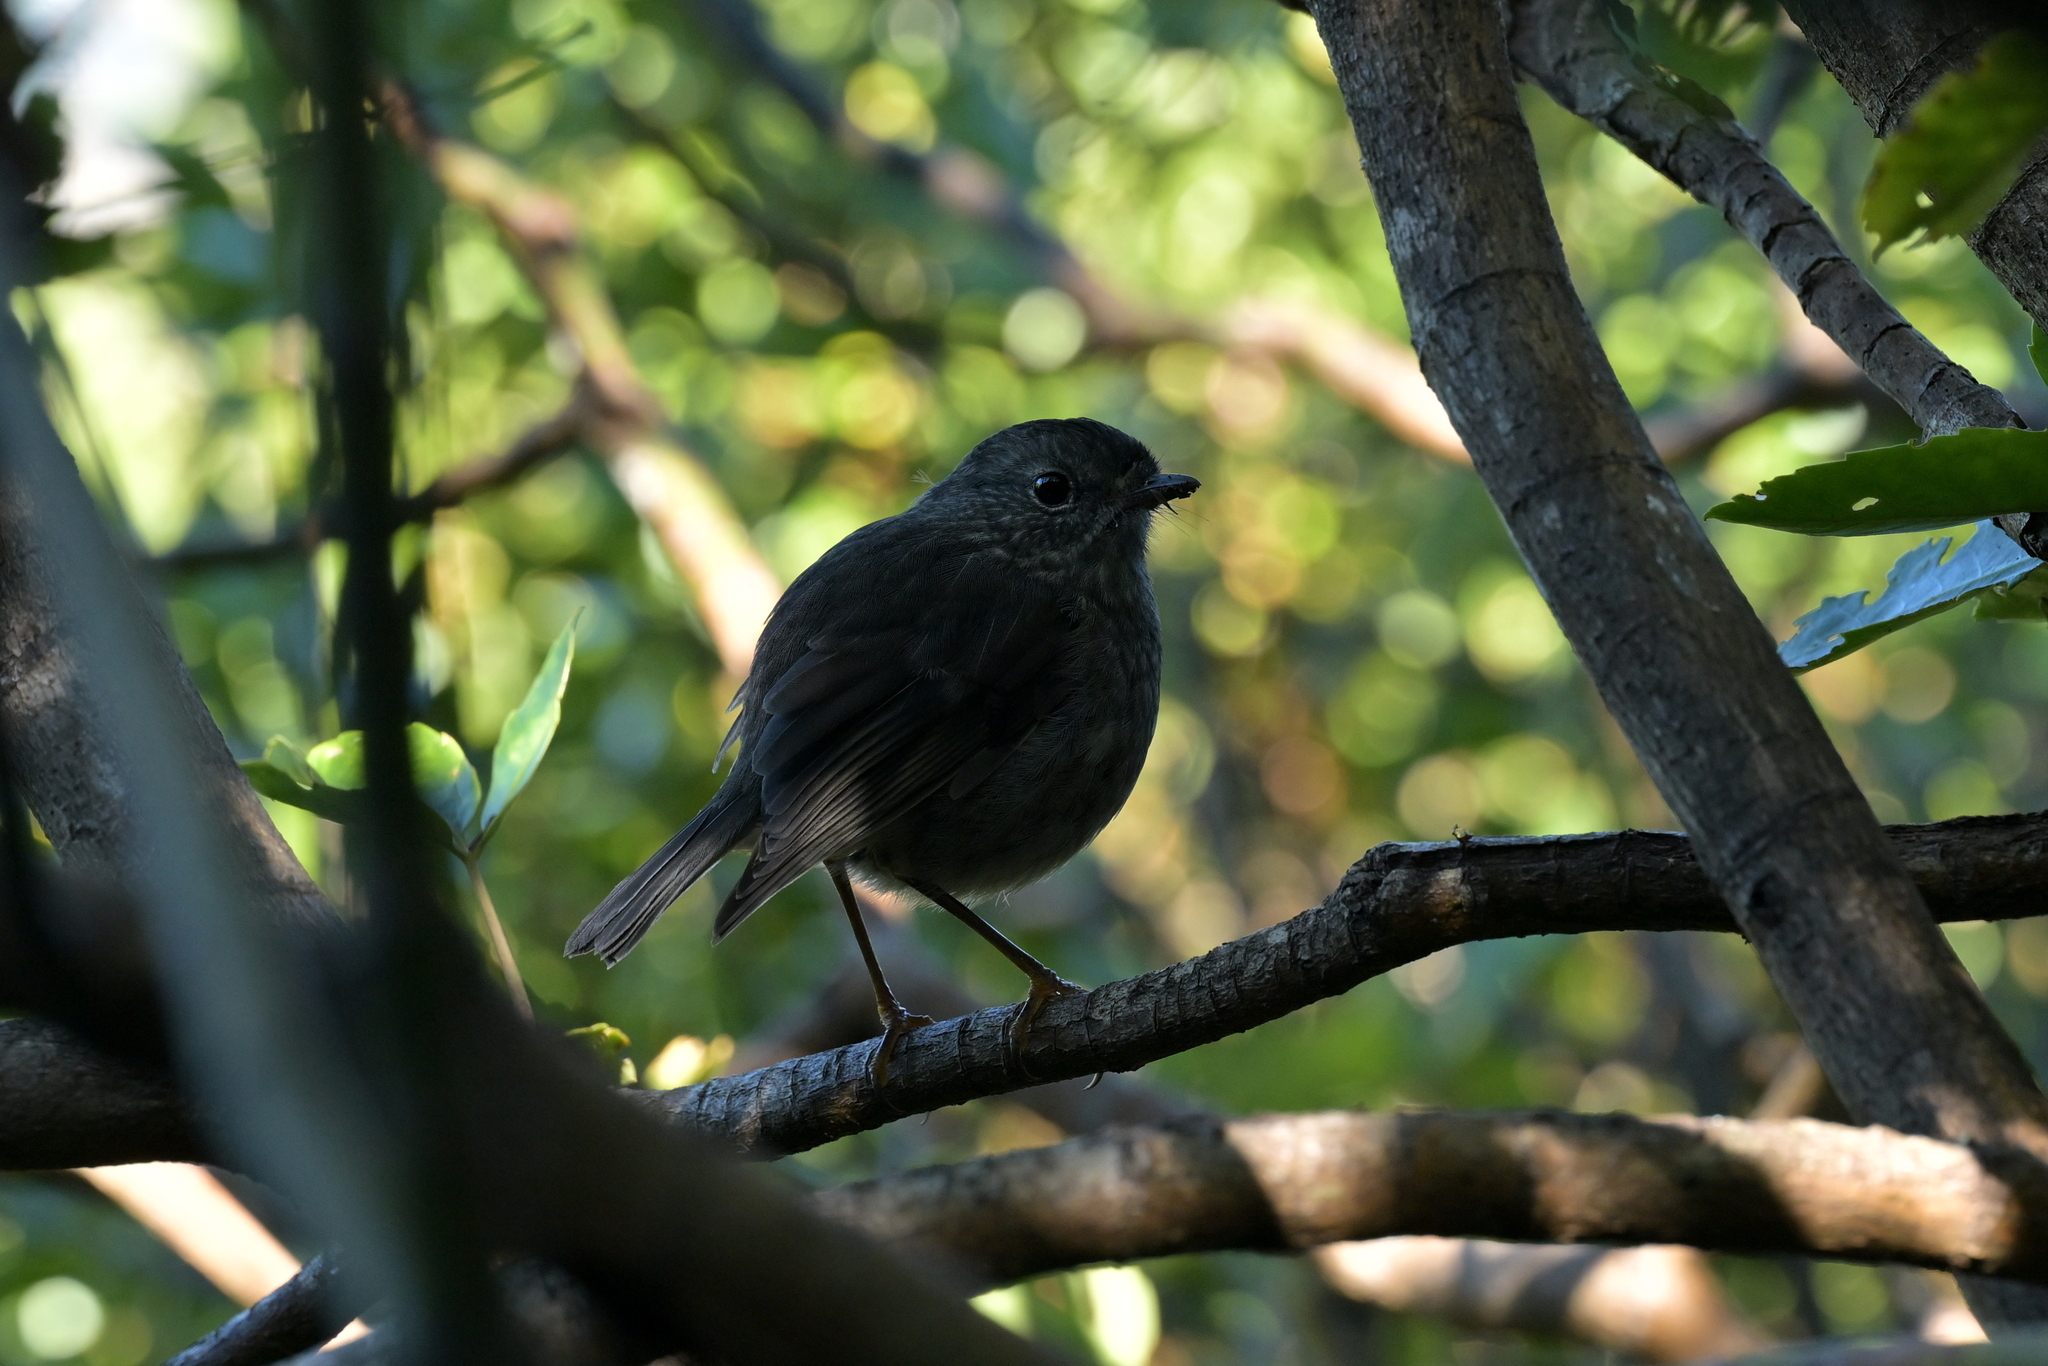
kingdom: Animalia
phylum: Chordata
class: Aves
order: Passeriformes
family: Petroicidae
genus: Petroica
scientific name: Petroica australis
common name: New zealand robin
